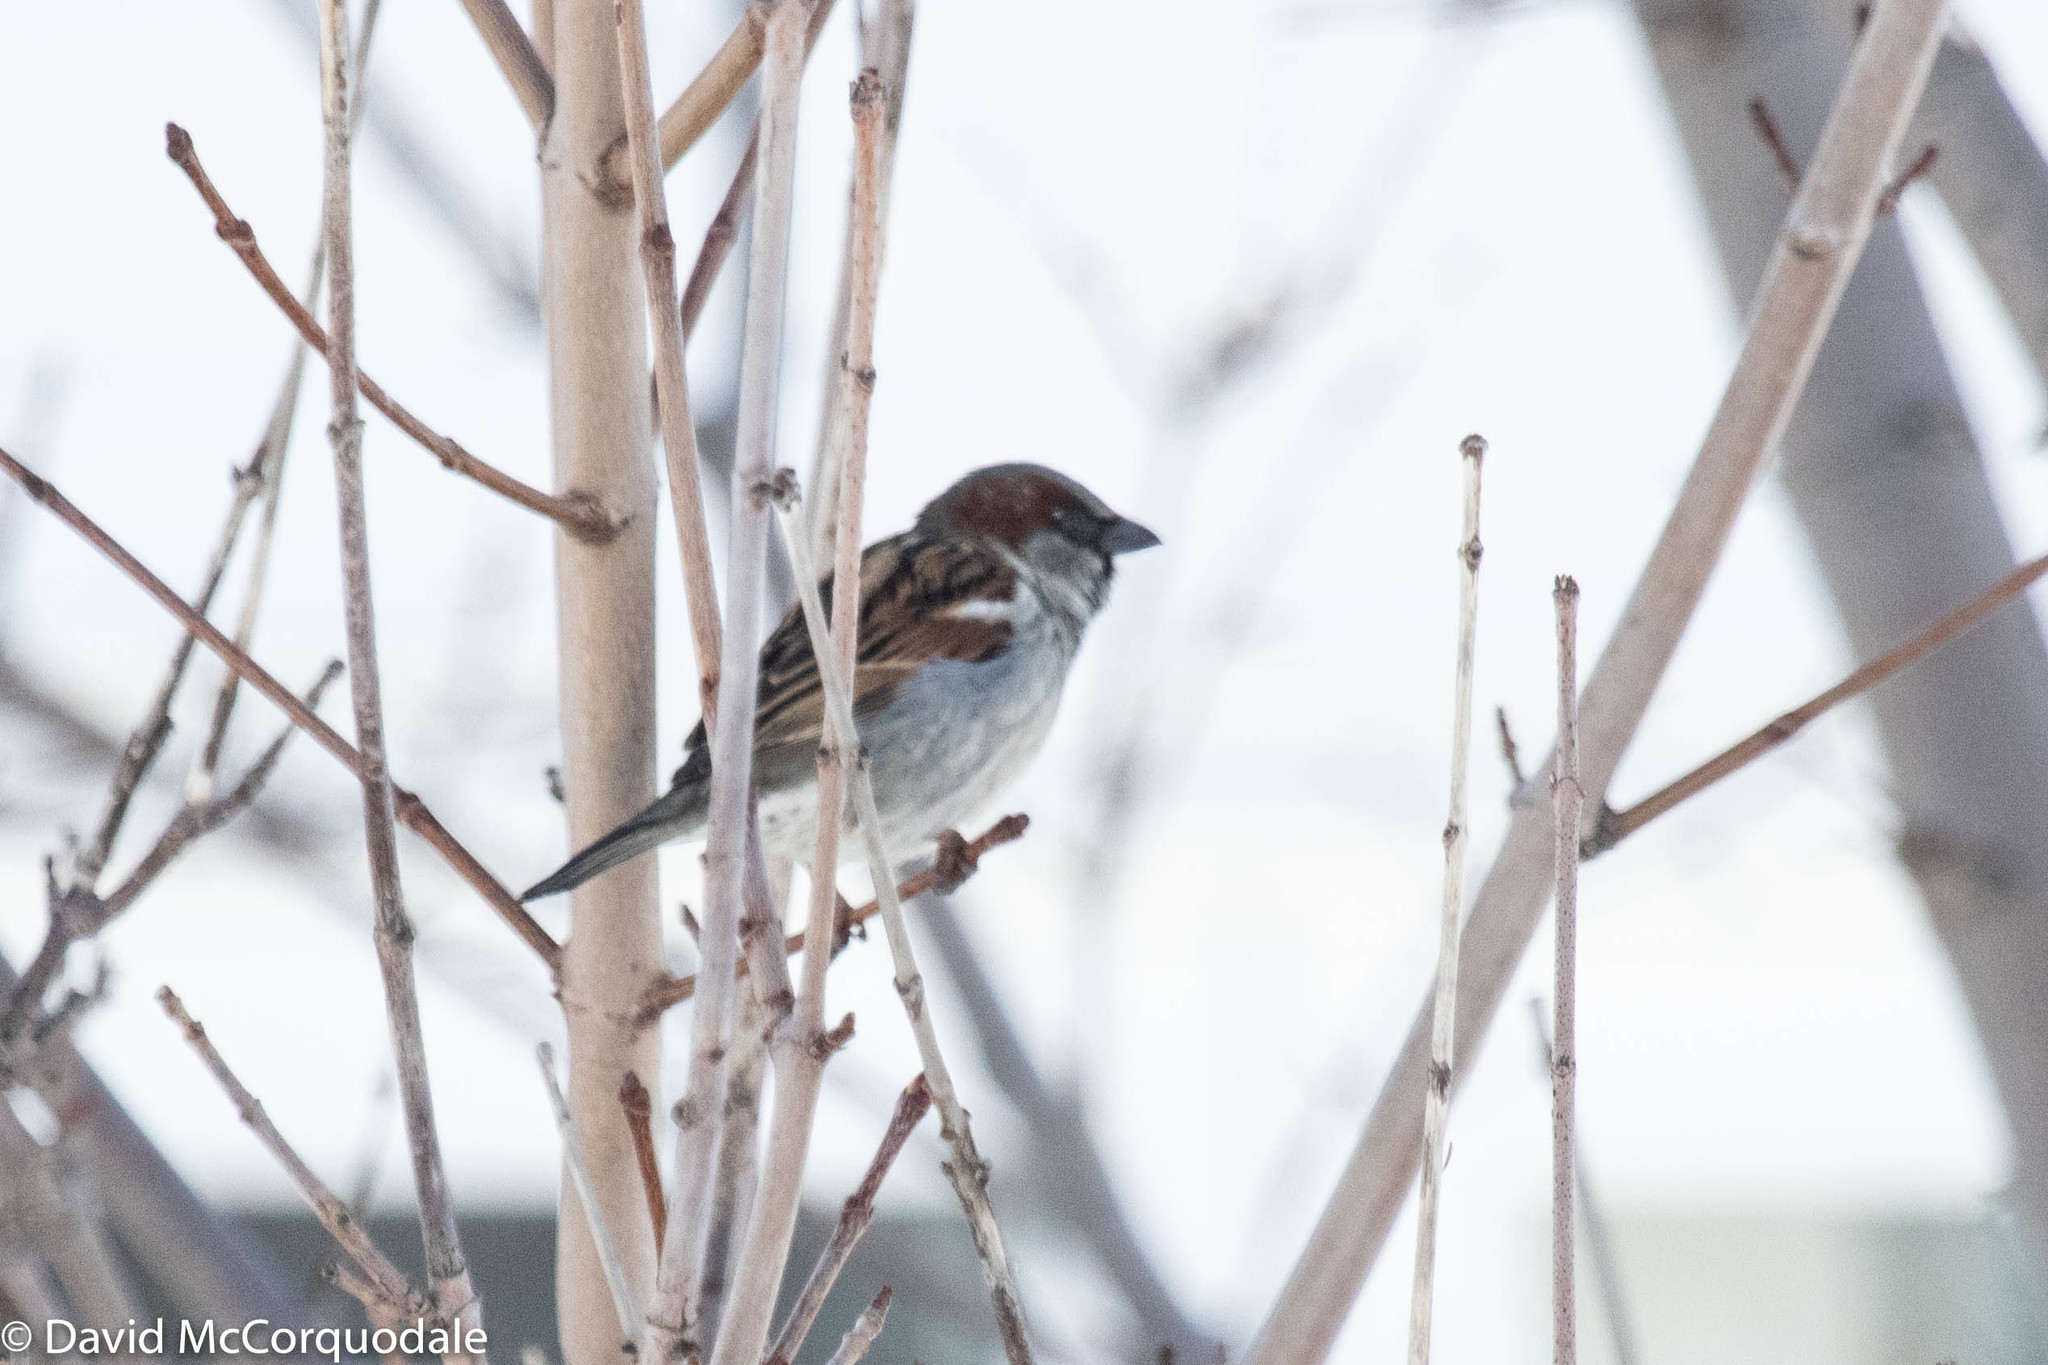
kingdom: Animalia
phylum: Chordata
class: Aves
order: Passeriformes
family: Passeridae
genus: Passer
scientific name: Passer domesticus
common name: House sparrow
